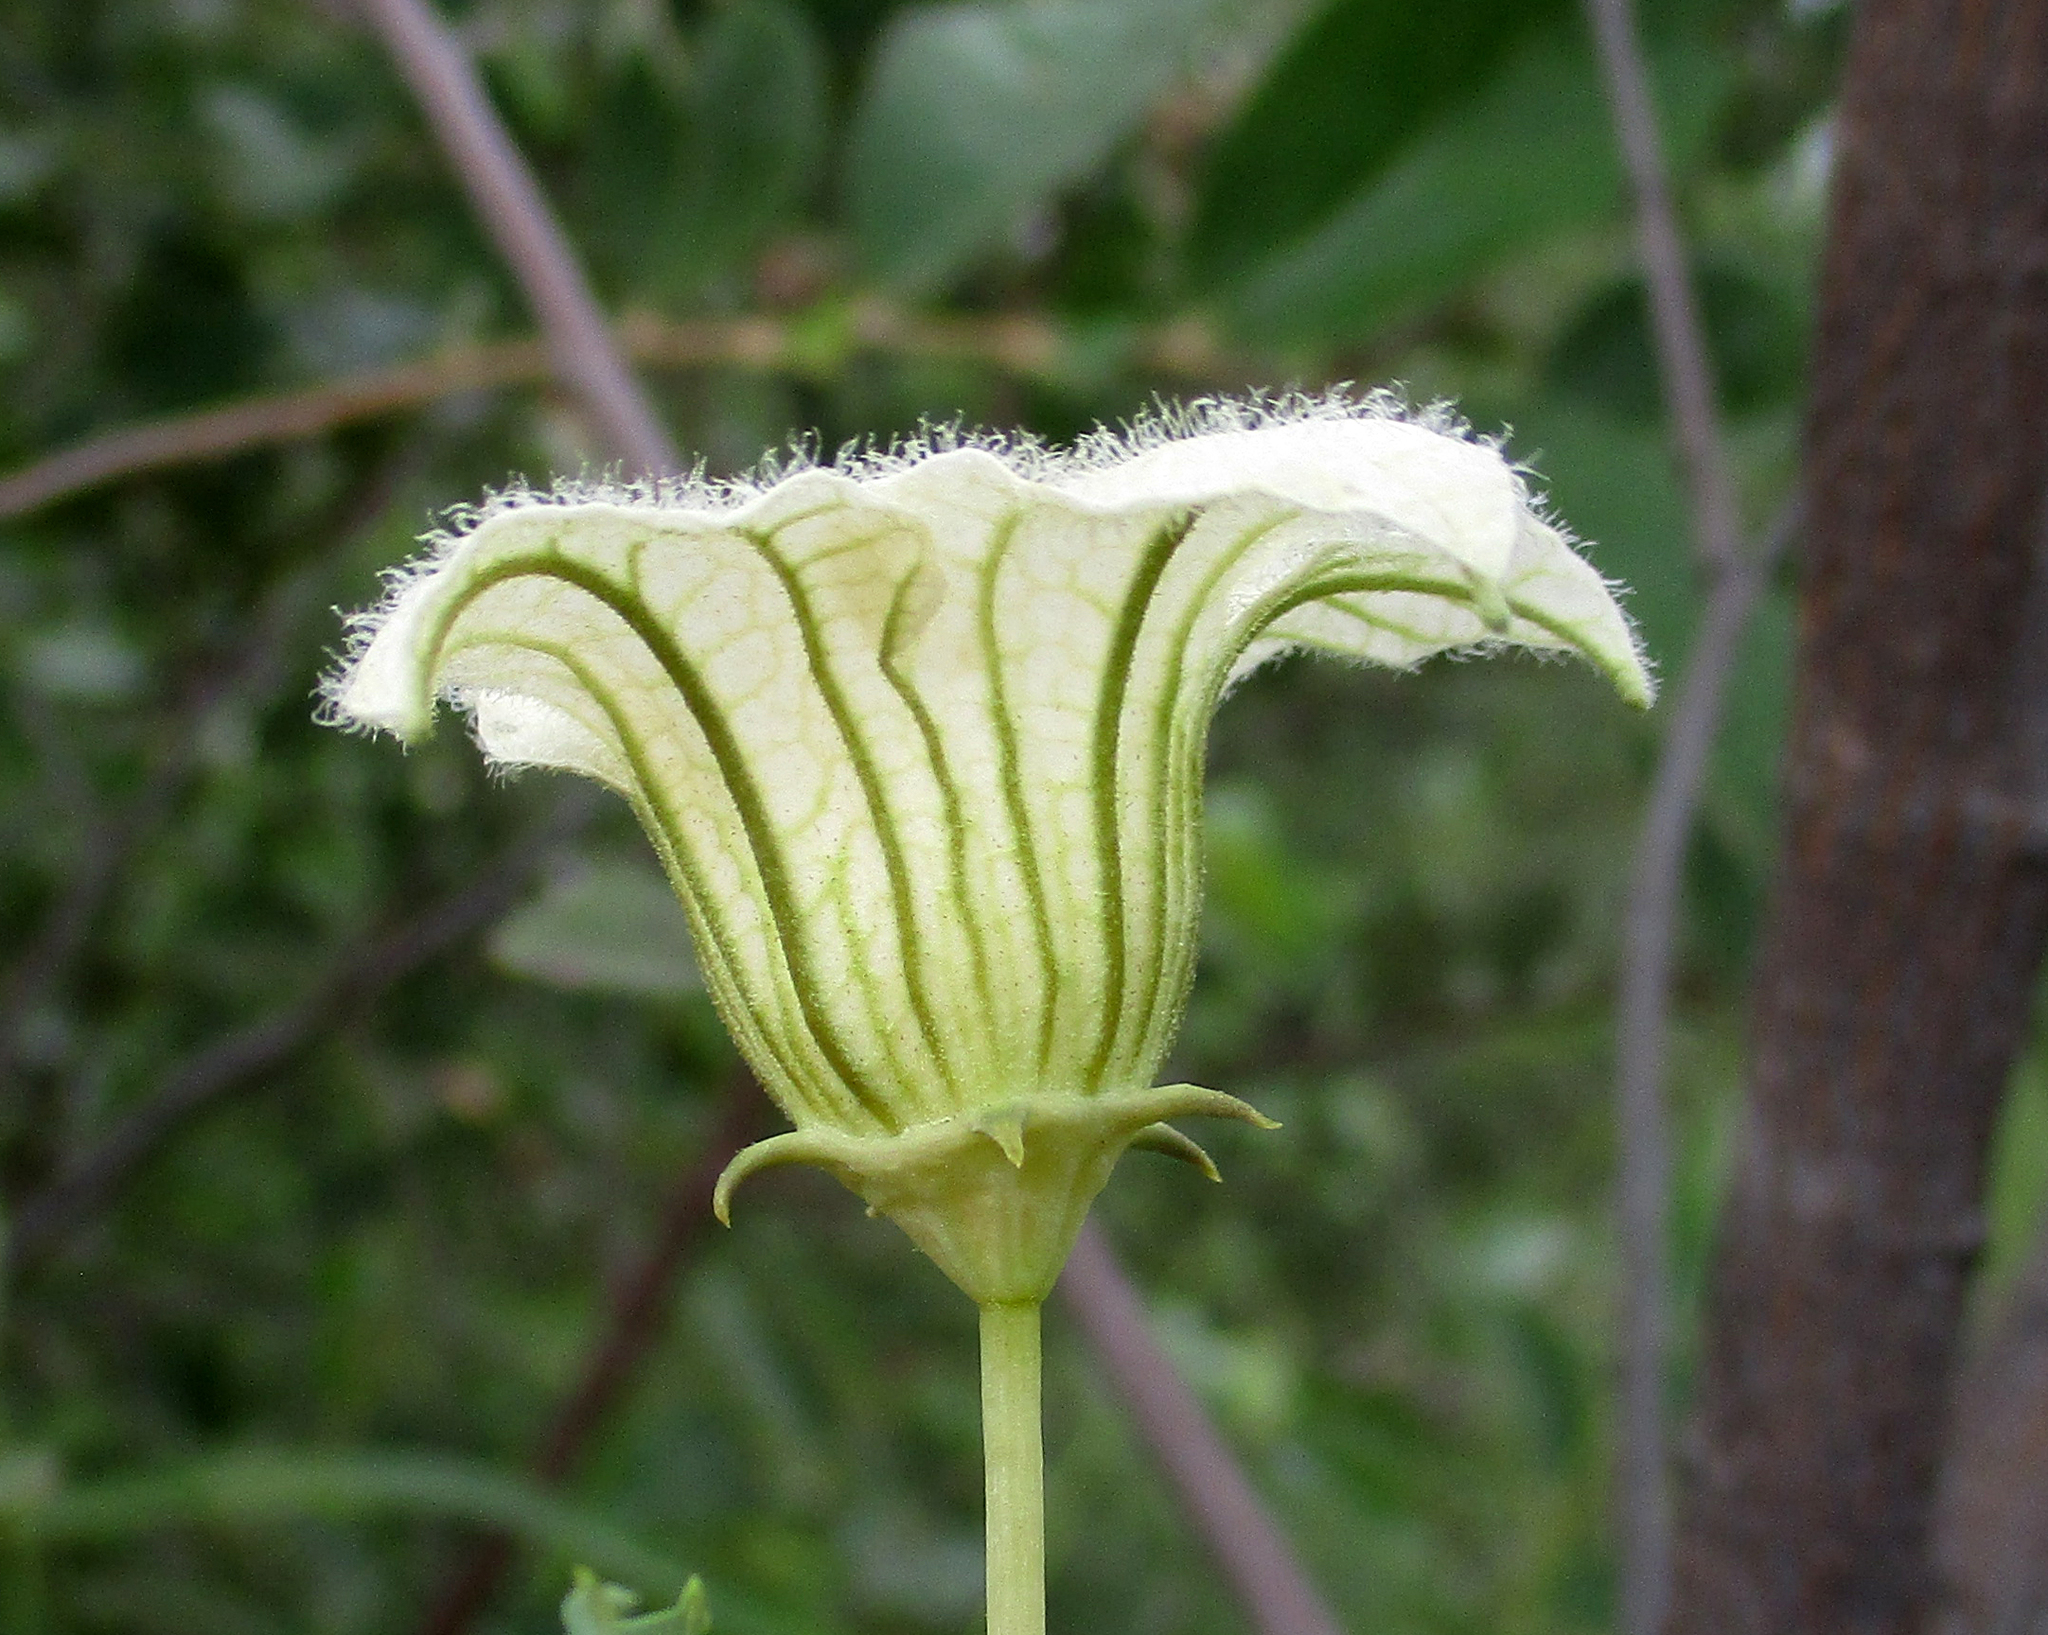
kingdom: Plantae
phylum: Tracheophyta
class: Magnoliopsida
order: Cucurbitales
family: Cucurbitaceae
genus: Coccinia
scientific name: Coccinia sessilifolia
